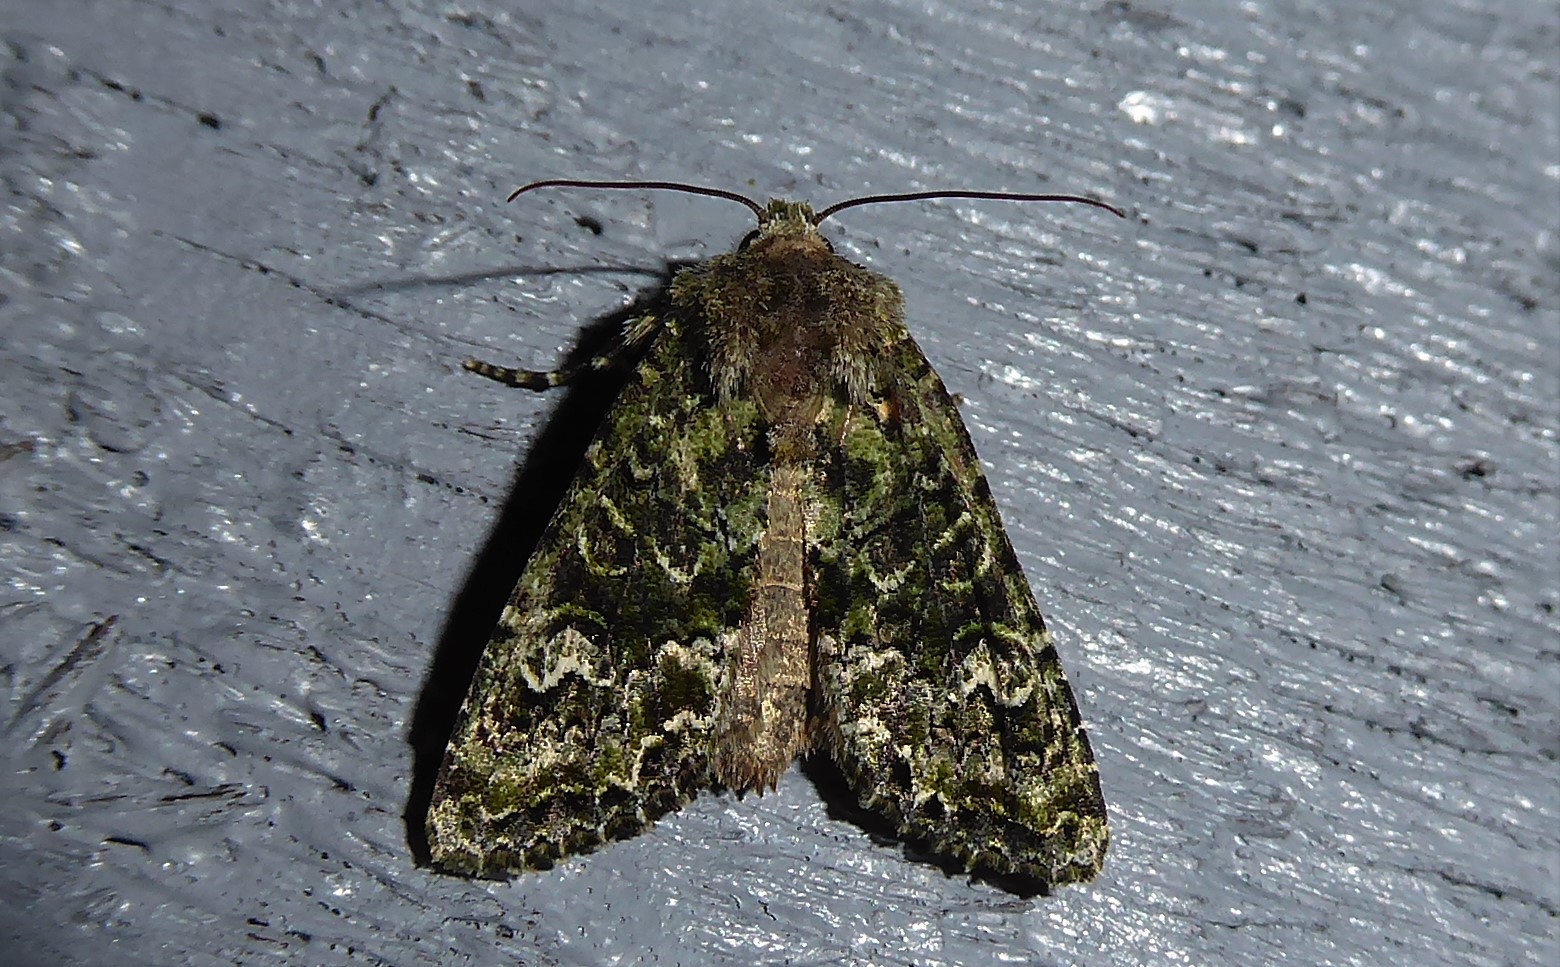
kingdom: Animalia
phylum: Arthropoda
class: Insecta
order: Lepidoptera
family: Noctuidae
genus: Ichneutica
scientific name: Ichneutica
